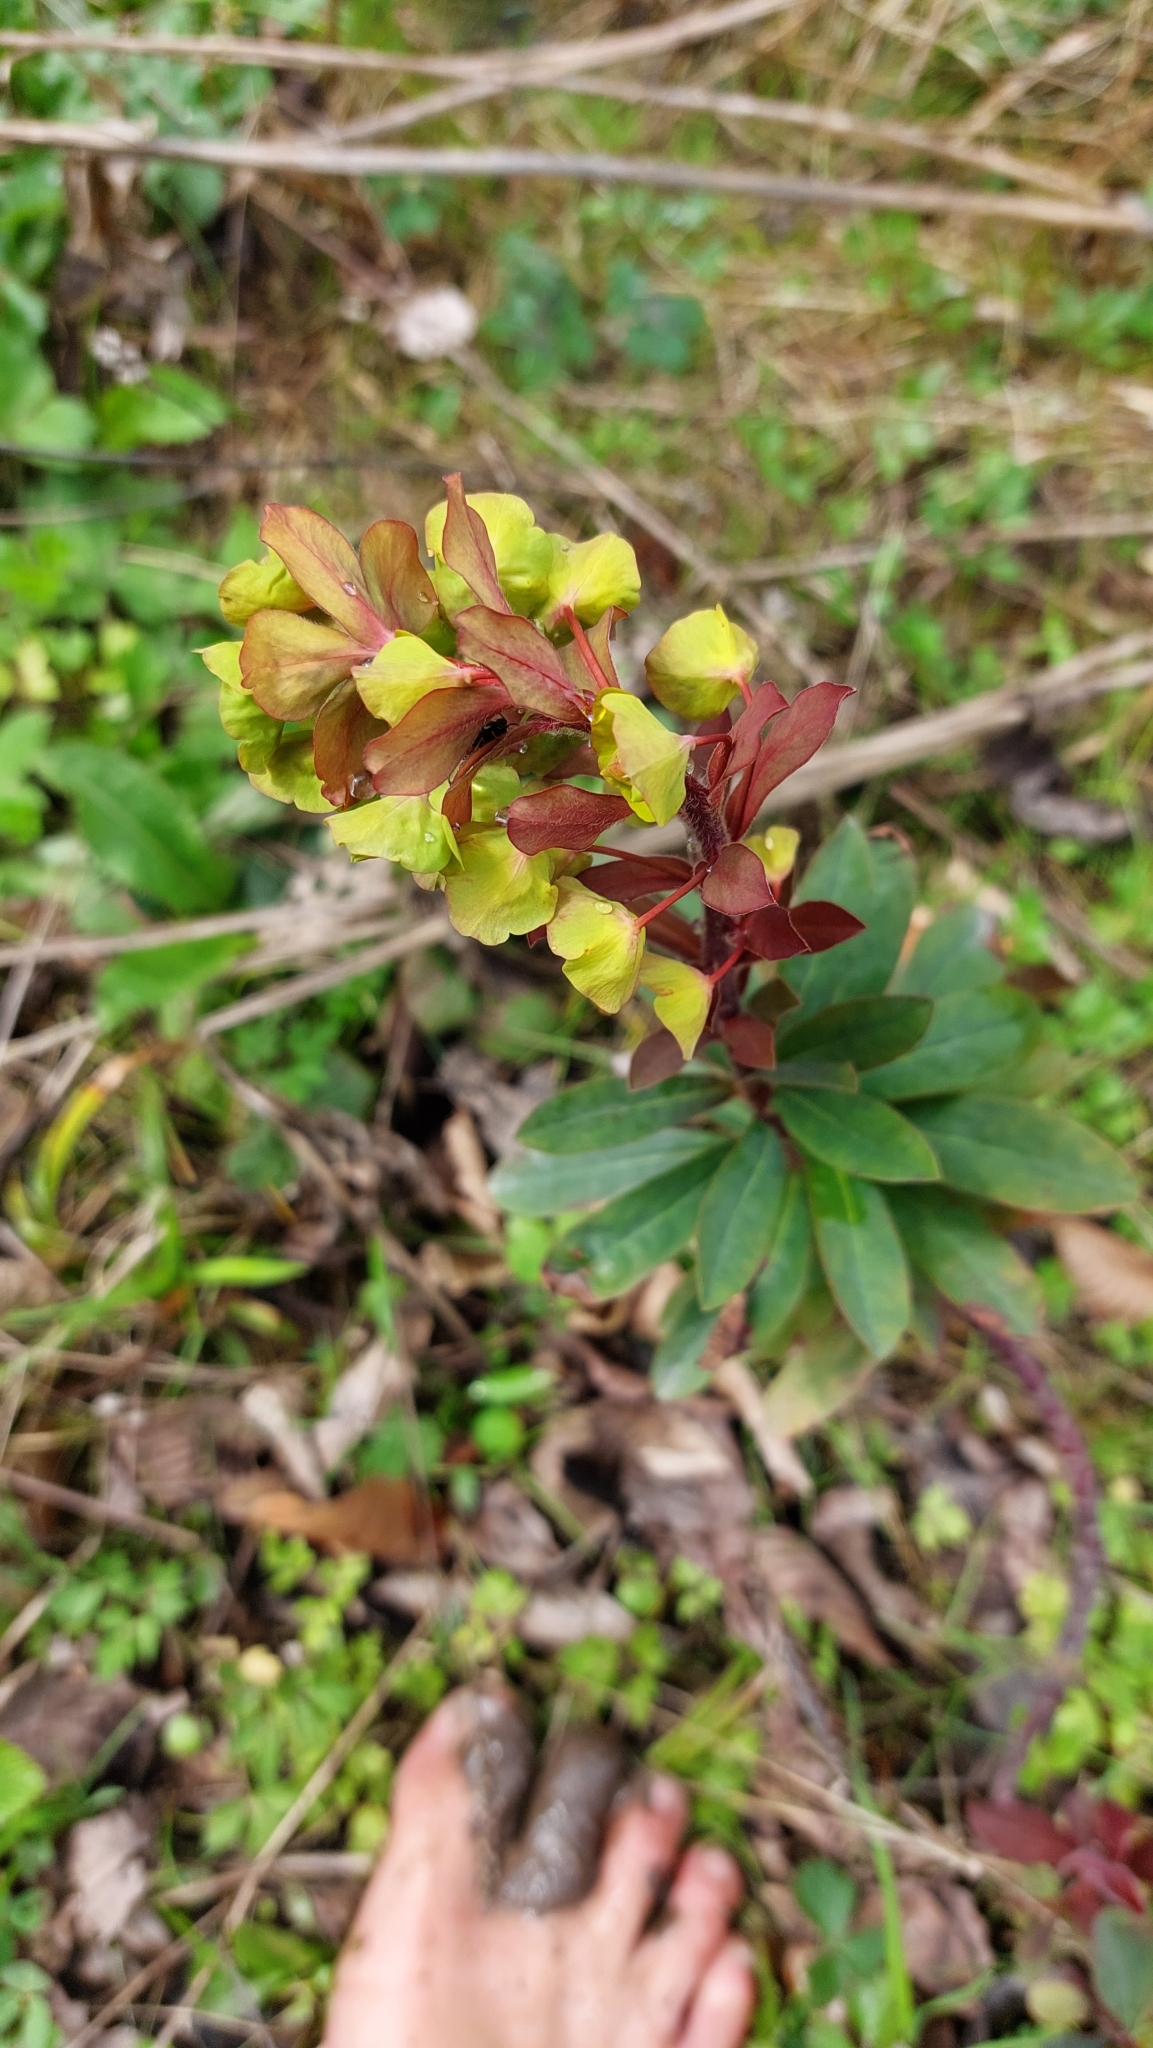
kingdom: Plantae
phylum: Tracheophyta
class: Magnoliopsida
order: Malpighiales
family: Euphorbiaceae
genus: Euphorbia
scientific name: Euphorbia amygdaloides
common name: Wood spurge
